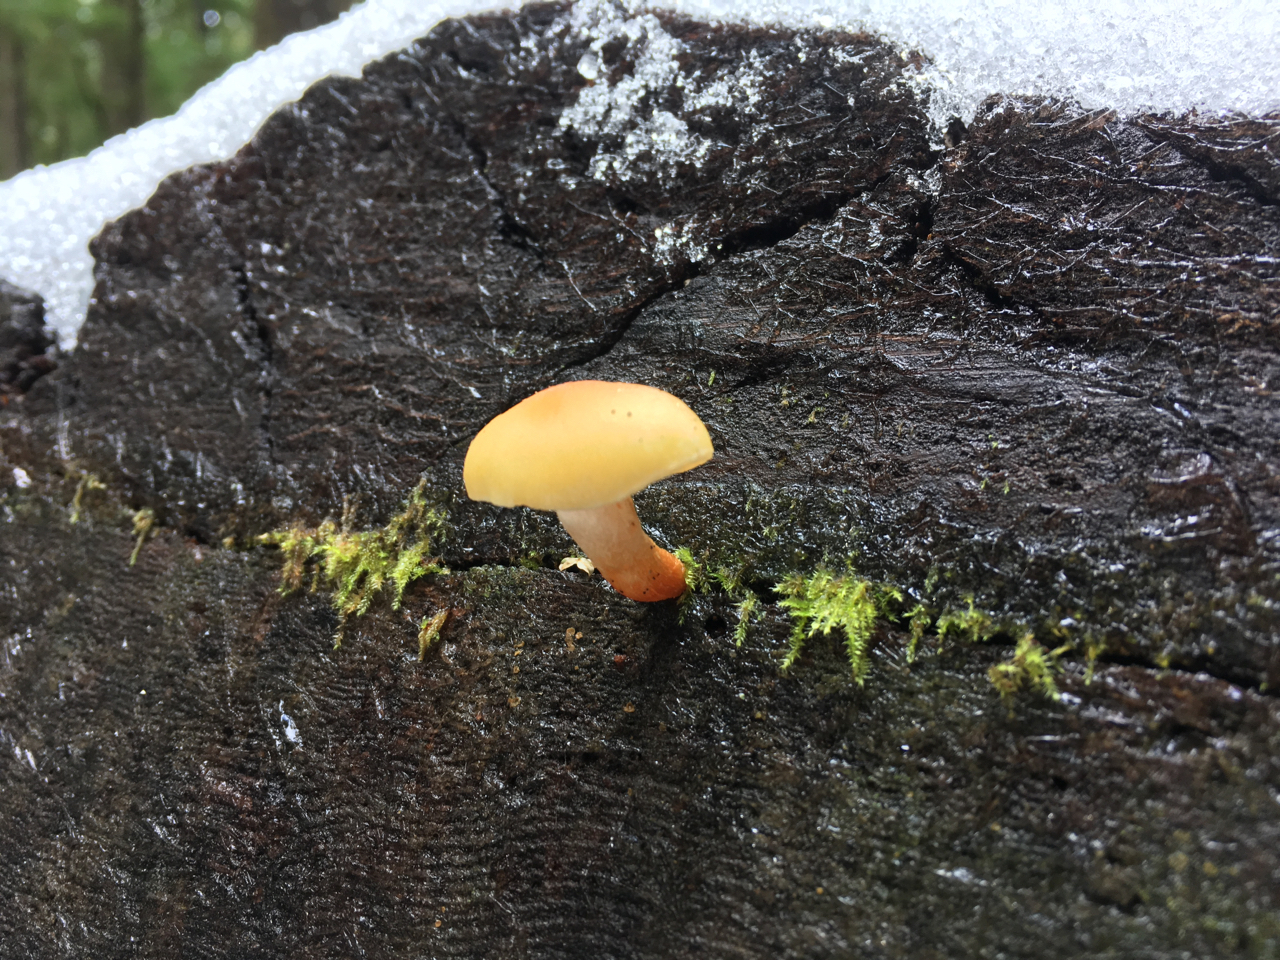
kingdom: Fungi
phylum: Basidiomycota
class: Agaricomycetes
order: Agaricales
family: Hygrophoraceae
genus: Chrysomphalina
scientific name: Chrysomphalina aurantiaca
